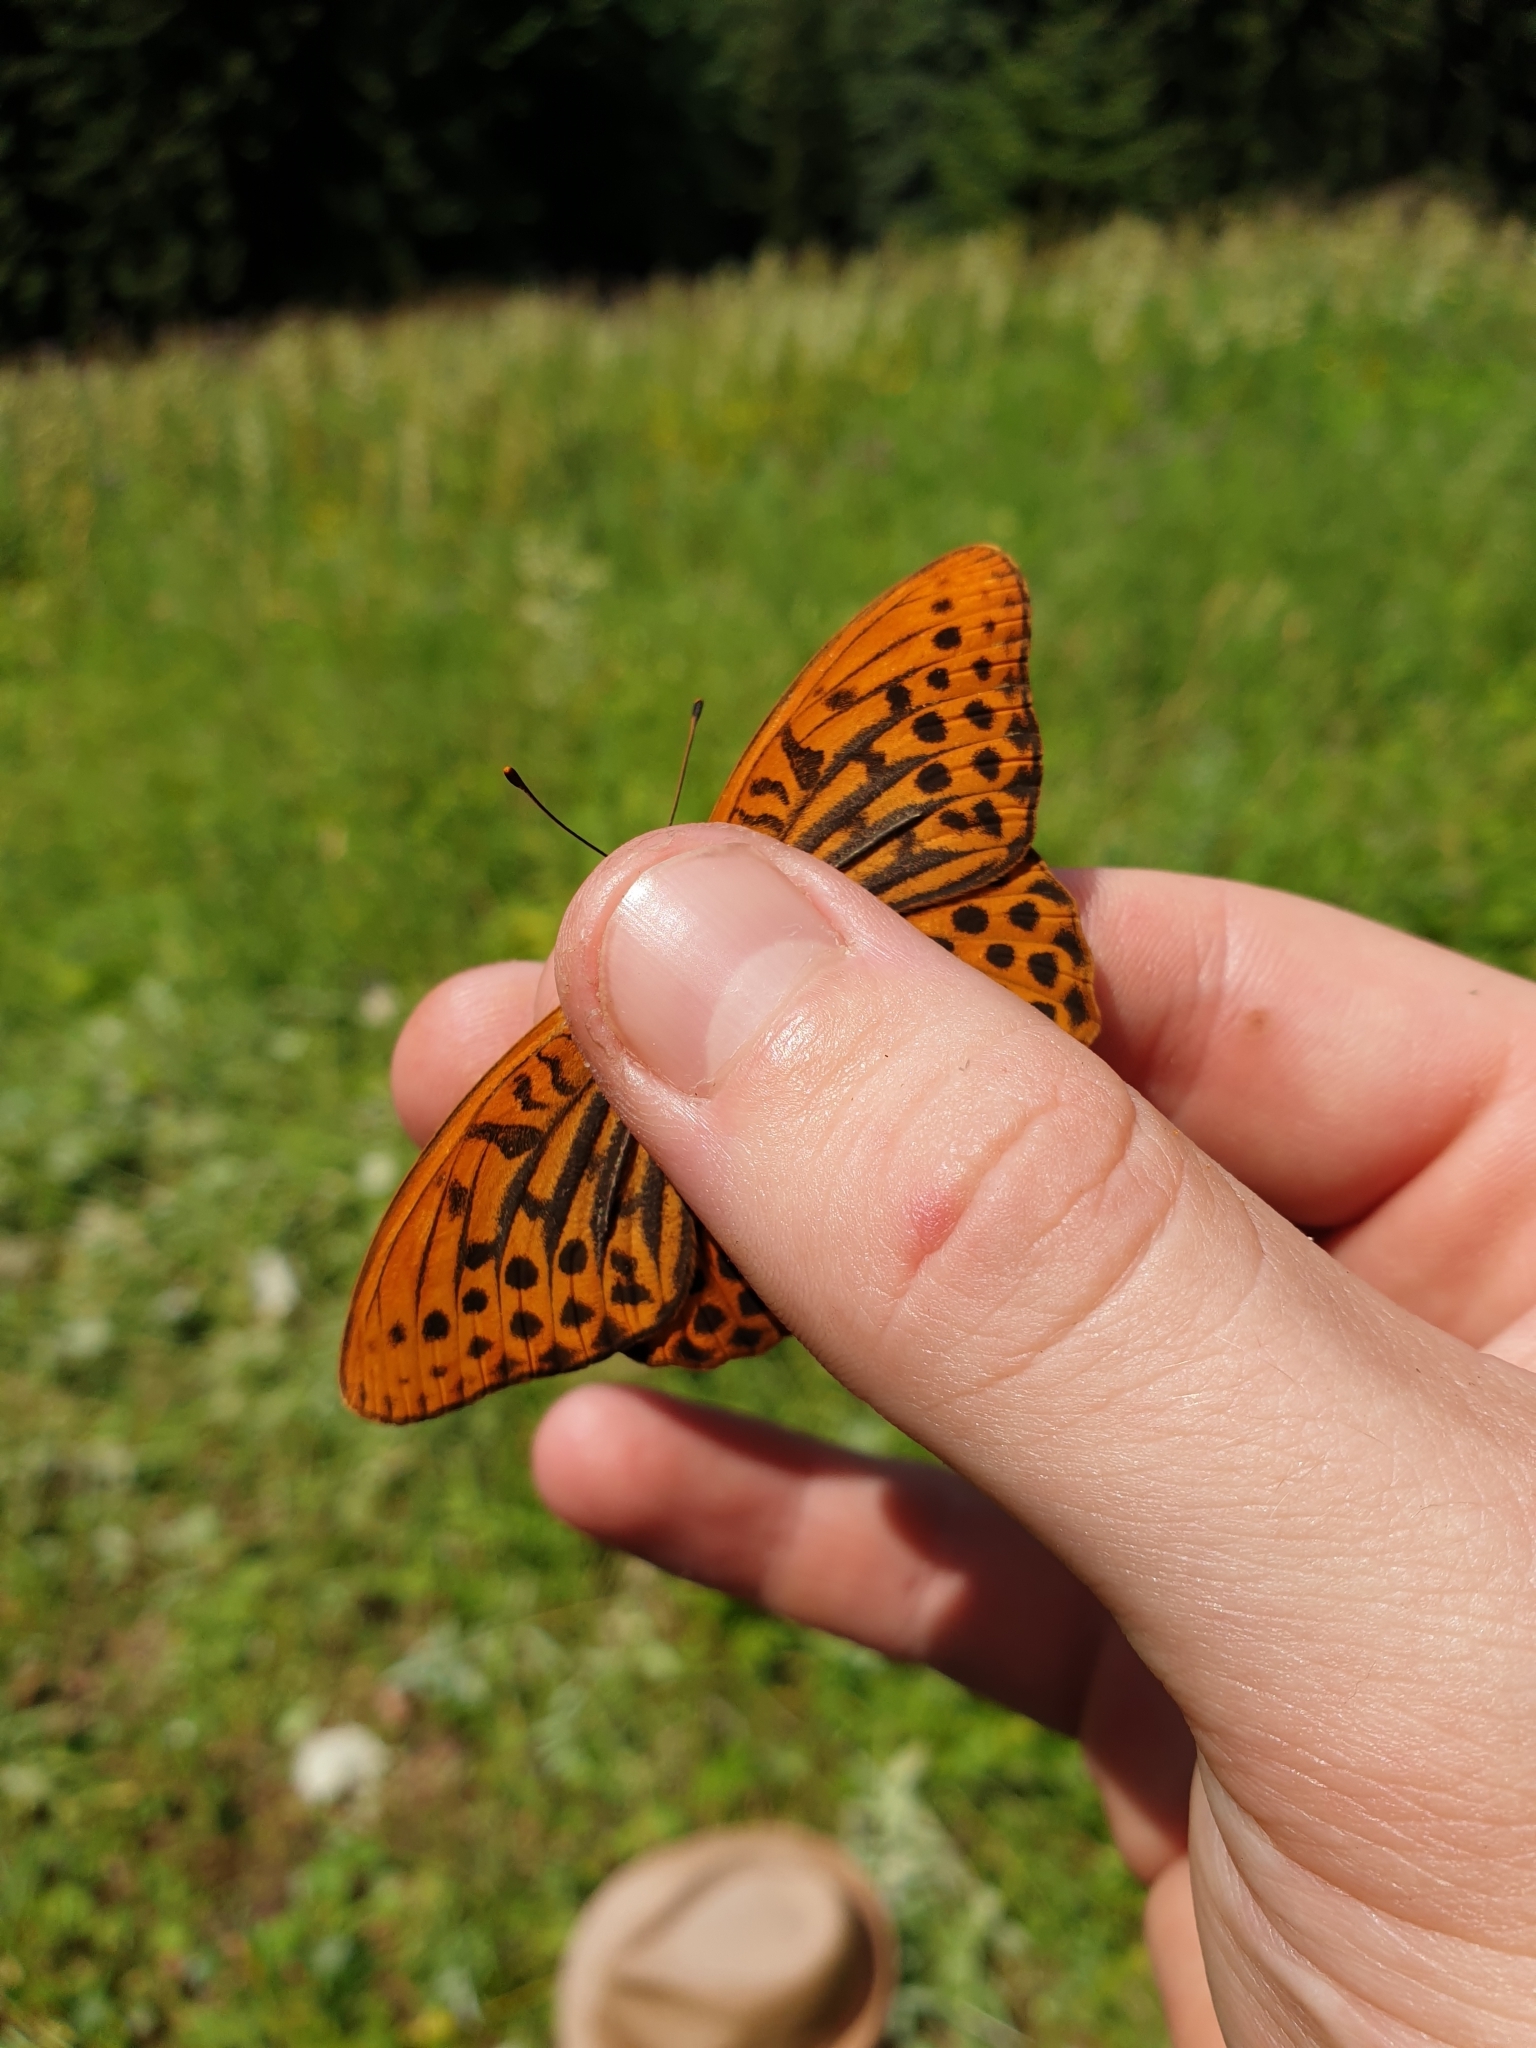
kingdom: Animalia
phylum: Arthropoda
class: Insecta
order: Lepidoptera
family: Nymphalidae
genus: Argynnis
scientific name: Argynnis paphia
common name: Silver-washed fritillary
